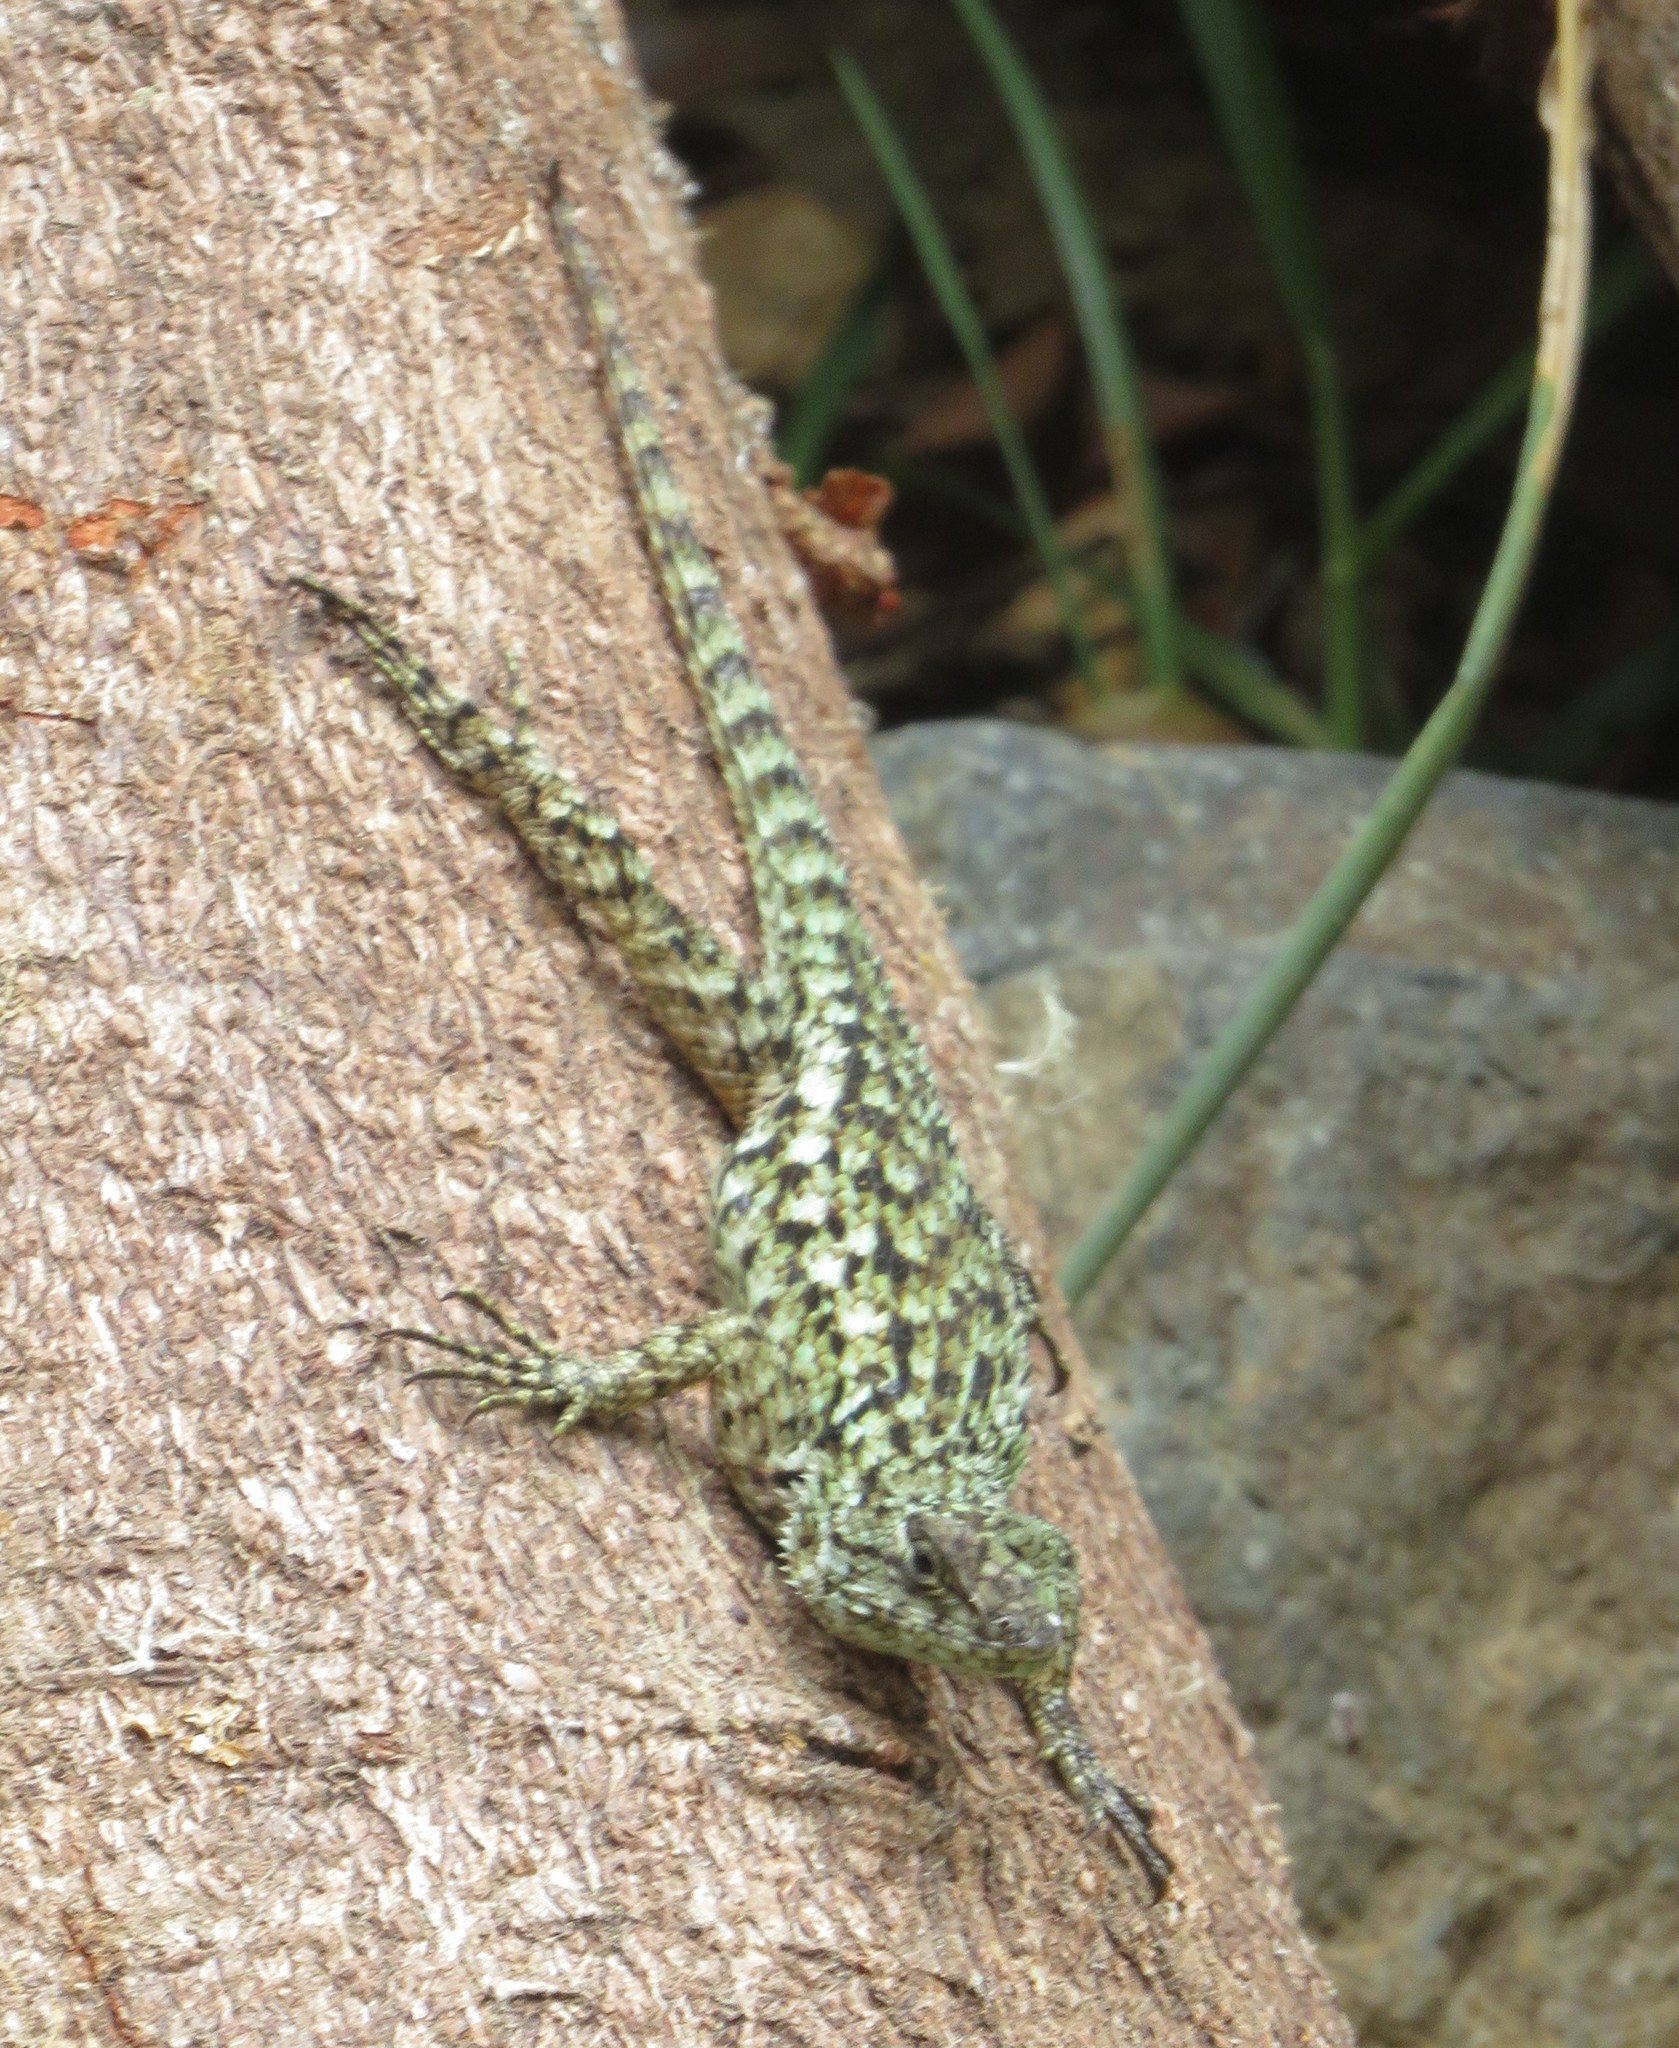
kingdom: Animalia
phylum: Chordata
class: Squamata
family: Phrynosomatidae
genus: Sceloporus
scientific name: Sceloporus malachiticus
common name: Green spiny lizard
